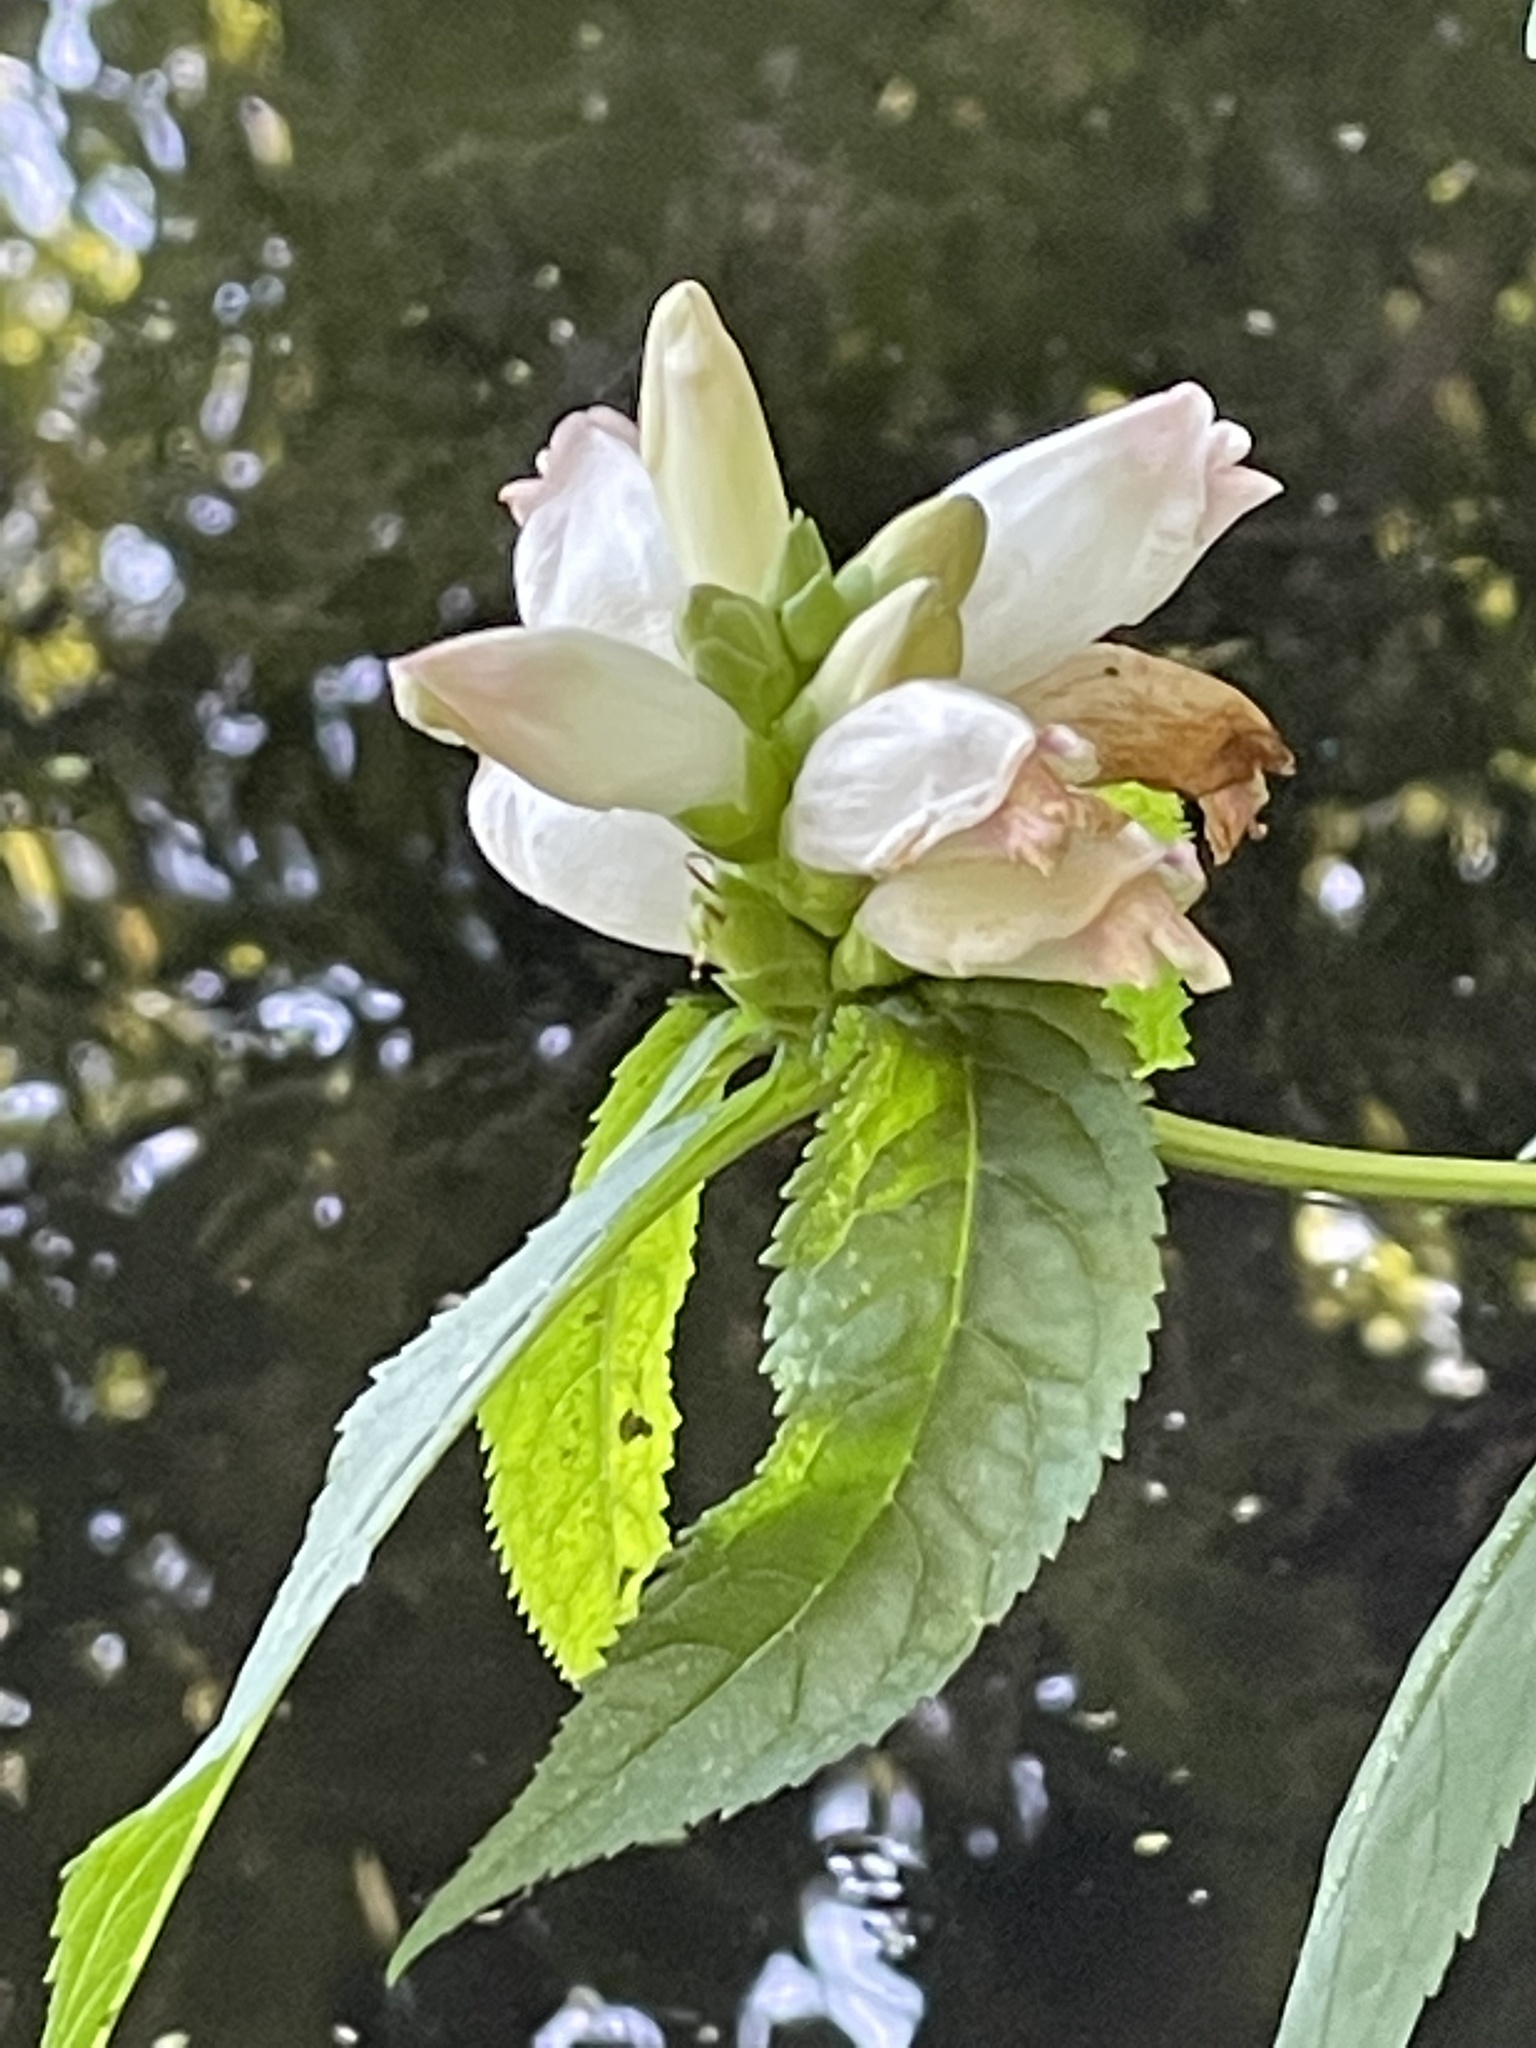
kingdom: Plantae
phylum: Tracheophyta
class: Magnoliopsida
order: Lamiales
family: Plantaginaceae
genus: Chelone
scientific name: Chelone glabra
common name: Snakehead
